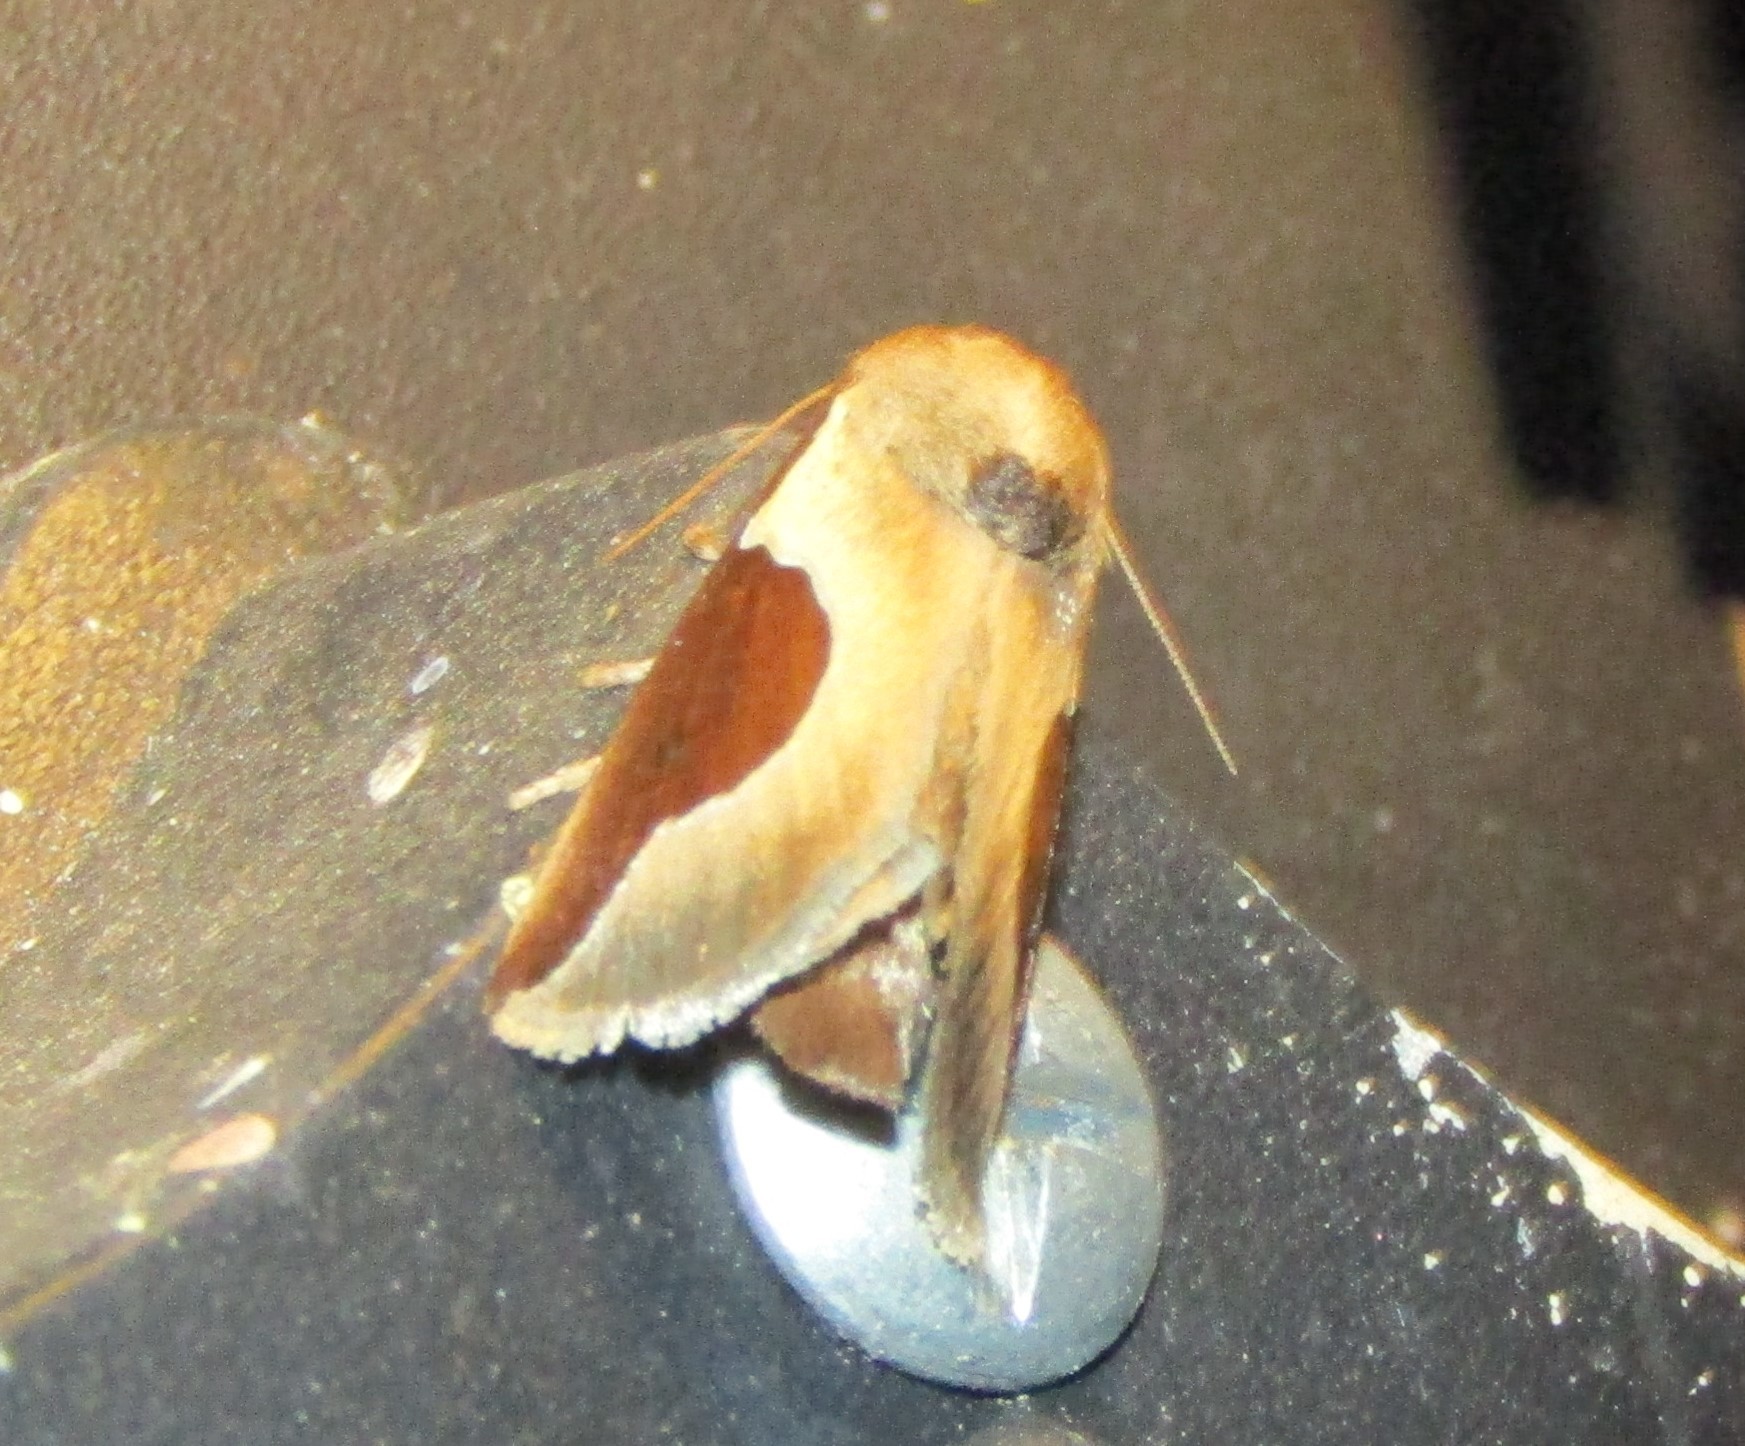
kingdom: Animalia
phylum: Arthropoda
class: Insecta
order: Lepidoptera
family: Limacodidae
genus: Prolimacodes
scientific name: Prolimacodes badia
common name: Skiff moth
